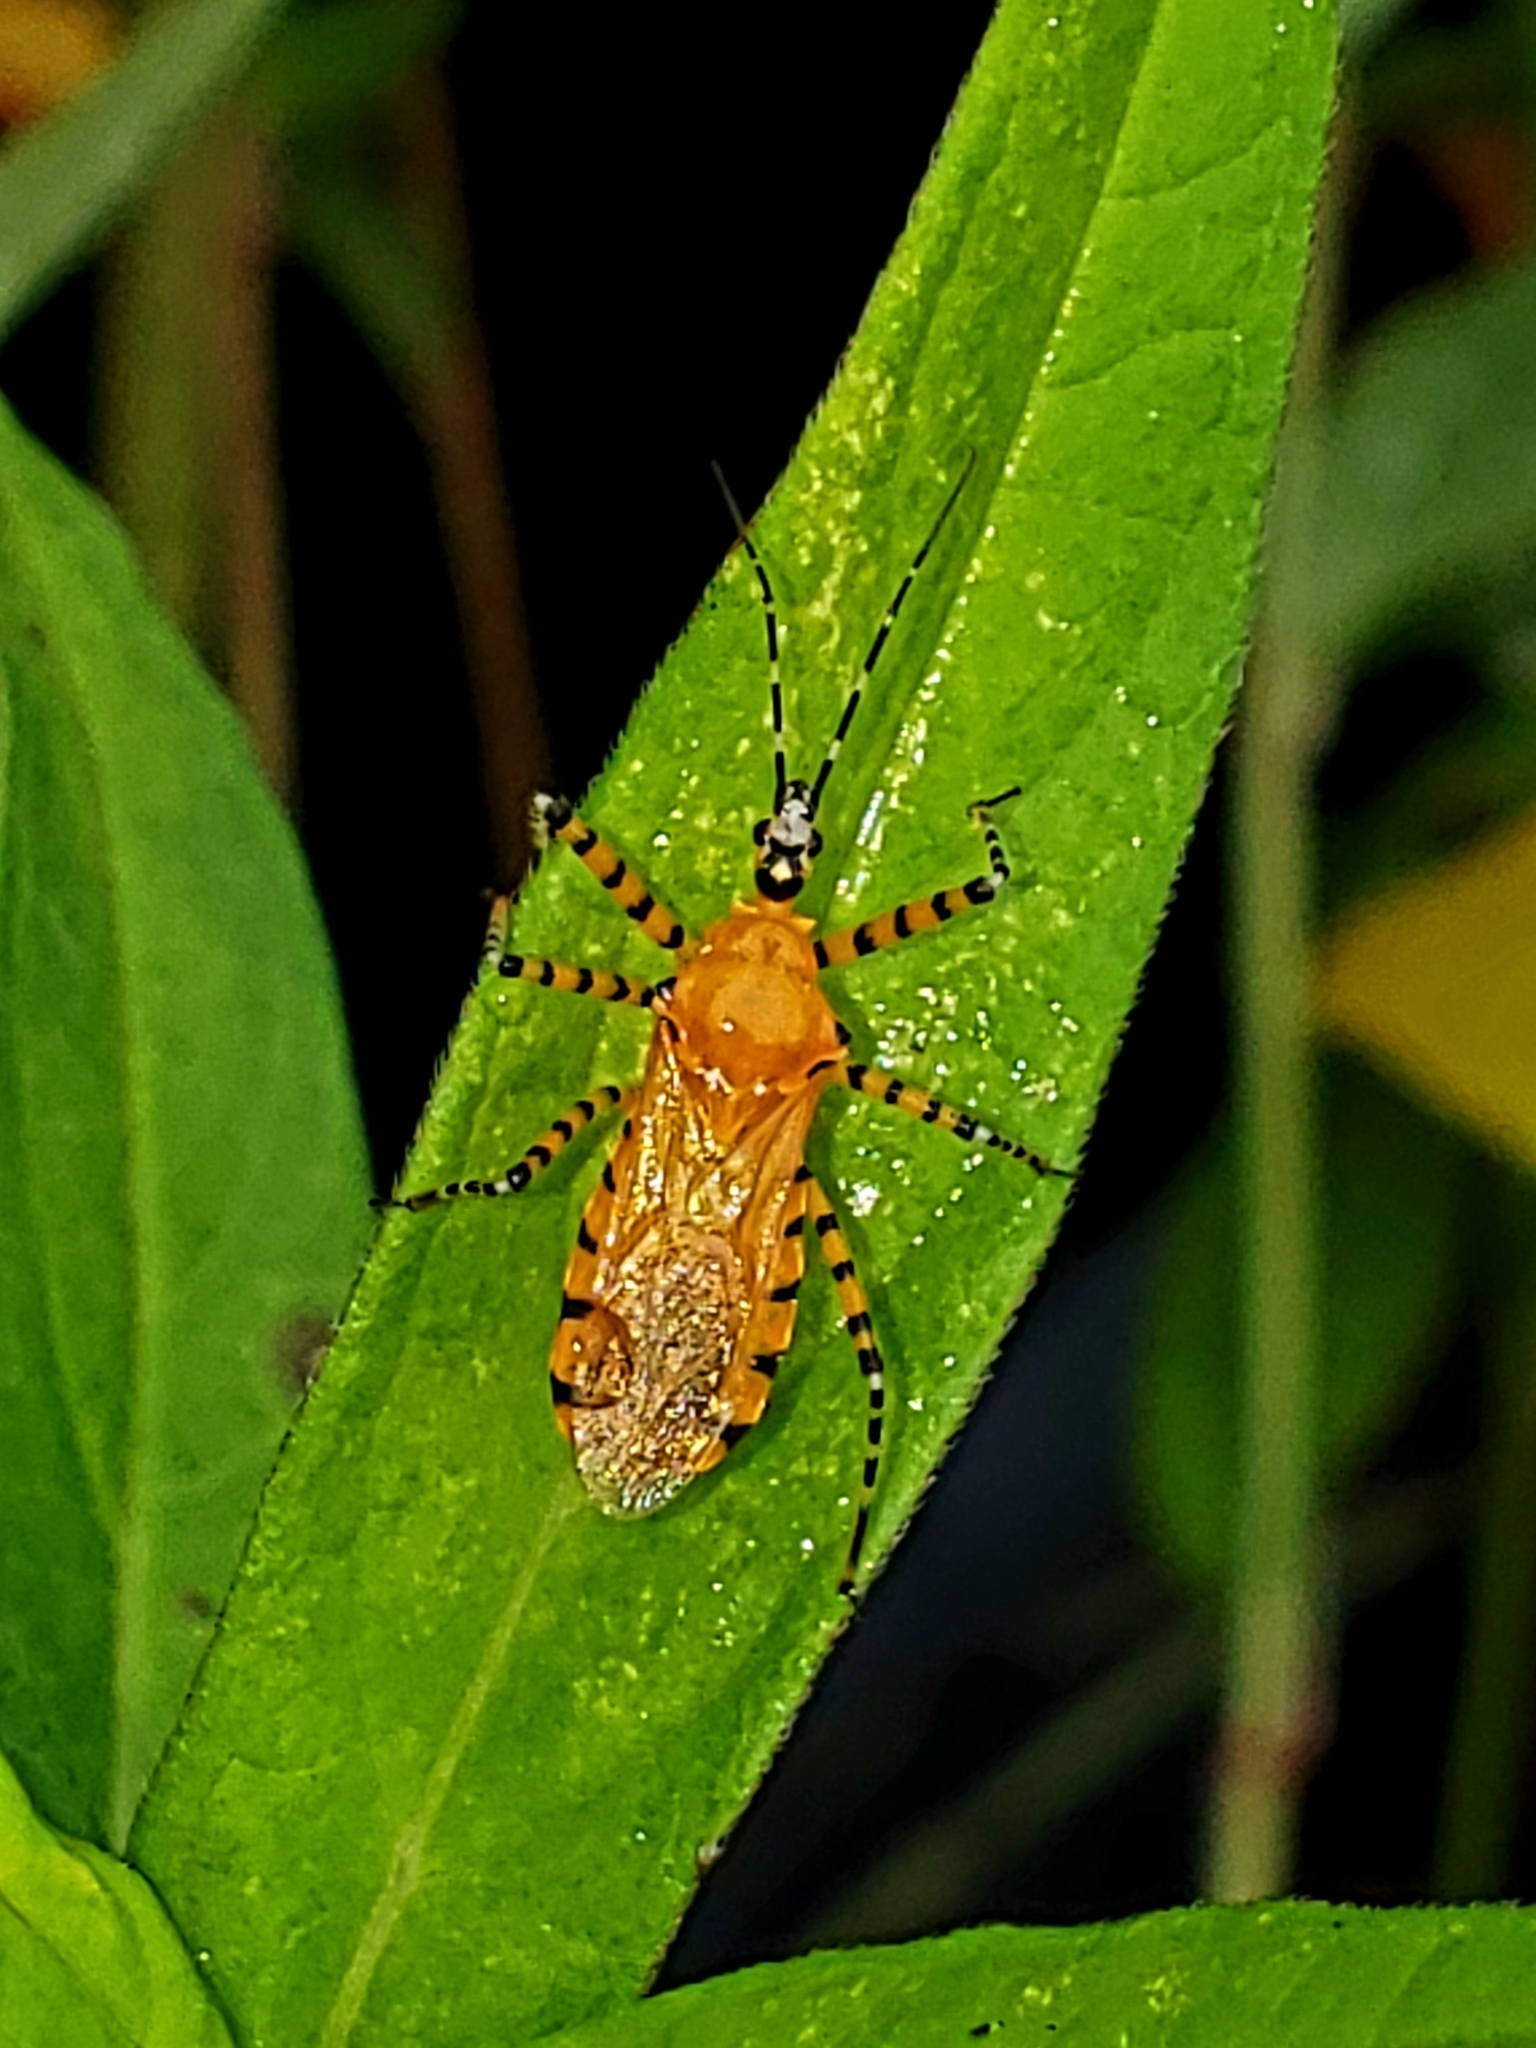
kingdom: Animalia
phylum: Arthropoda
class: Insecta
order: Hemiptera
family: Reduviidae
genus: Pselliopus
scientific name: Pselliopus barberi
